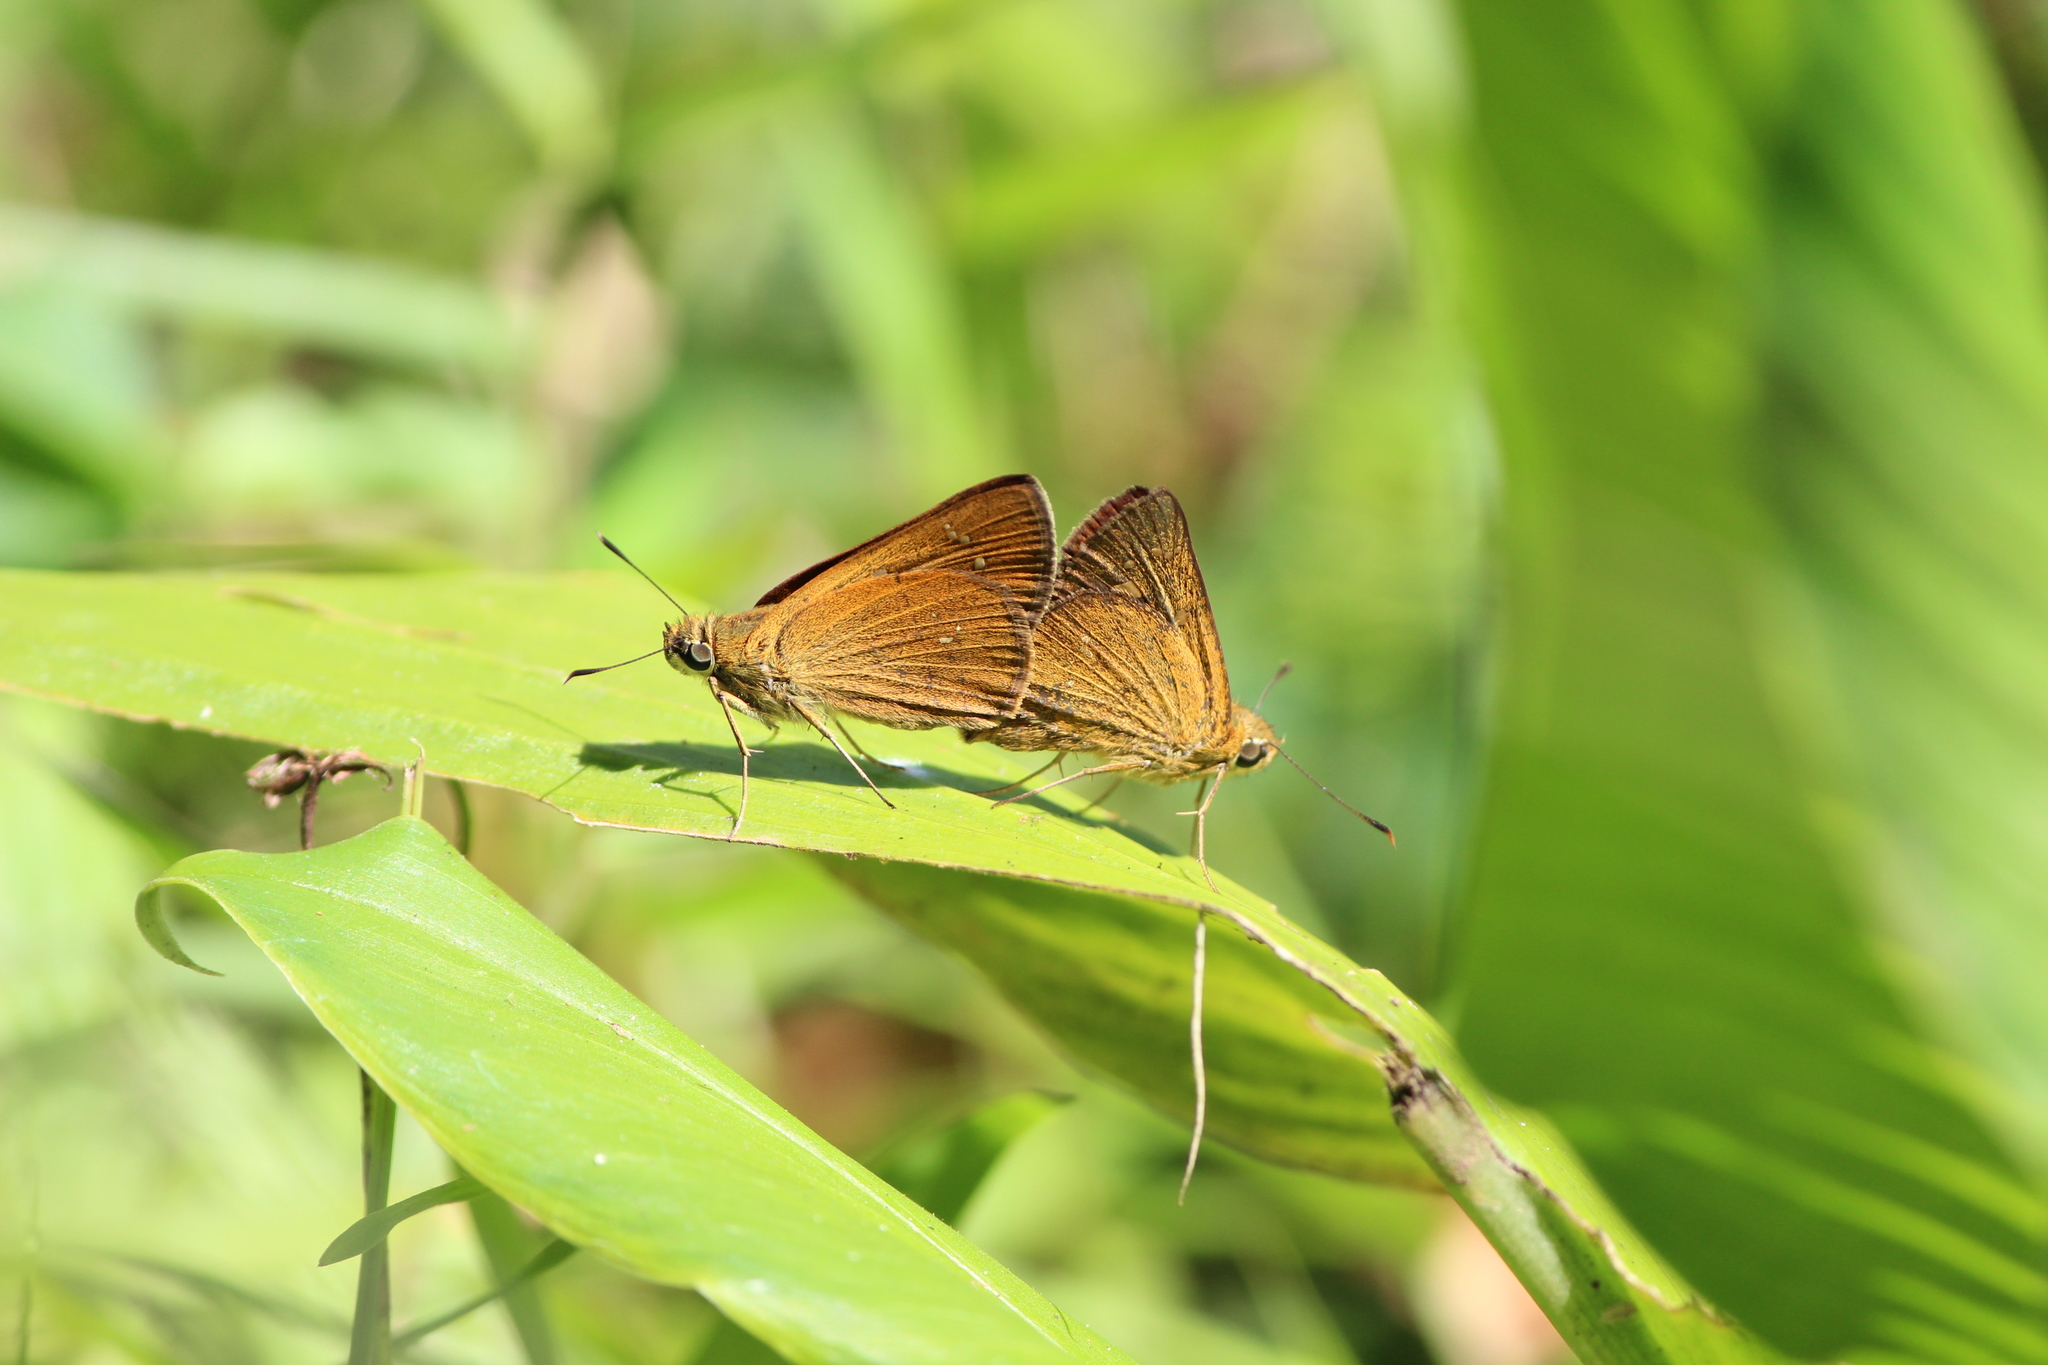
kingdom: Animalia
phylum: Arthropoda
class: Insecta
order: Lepidoptera
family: Hesperiidae
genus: Polytremis
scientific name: Polytremis lubricans
